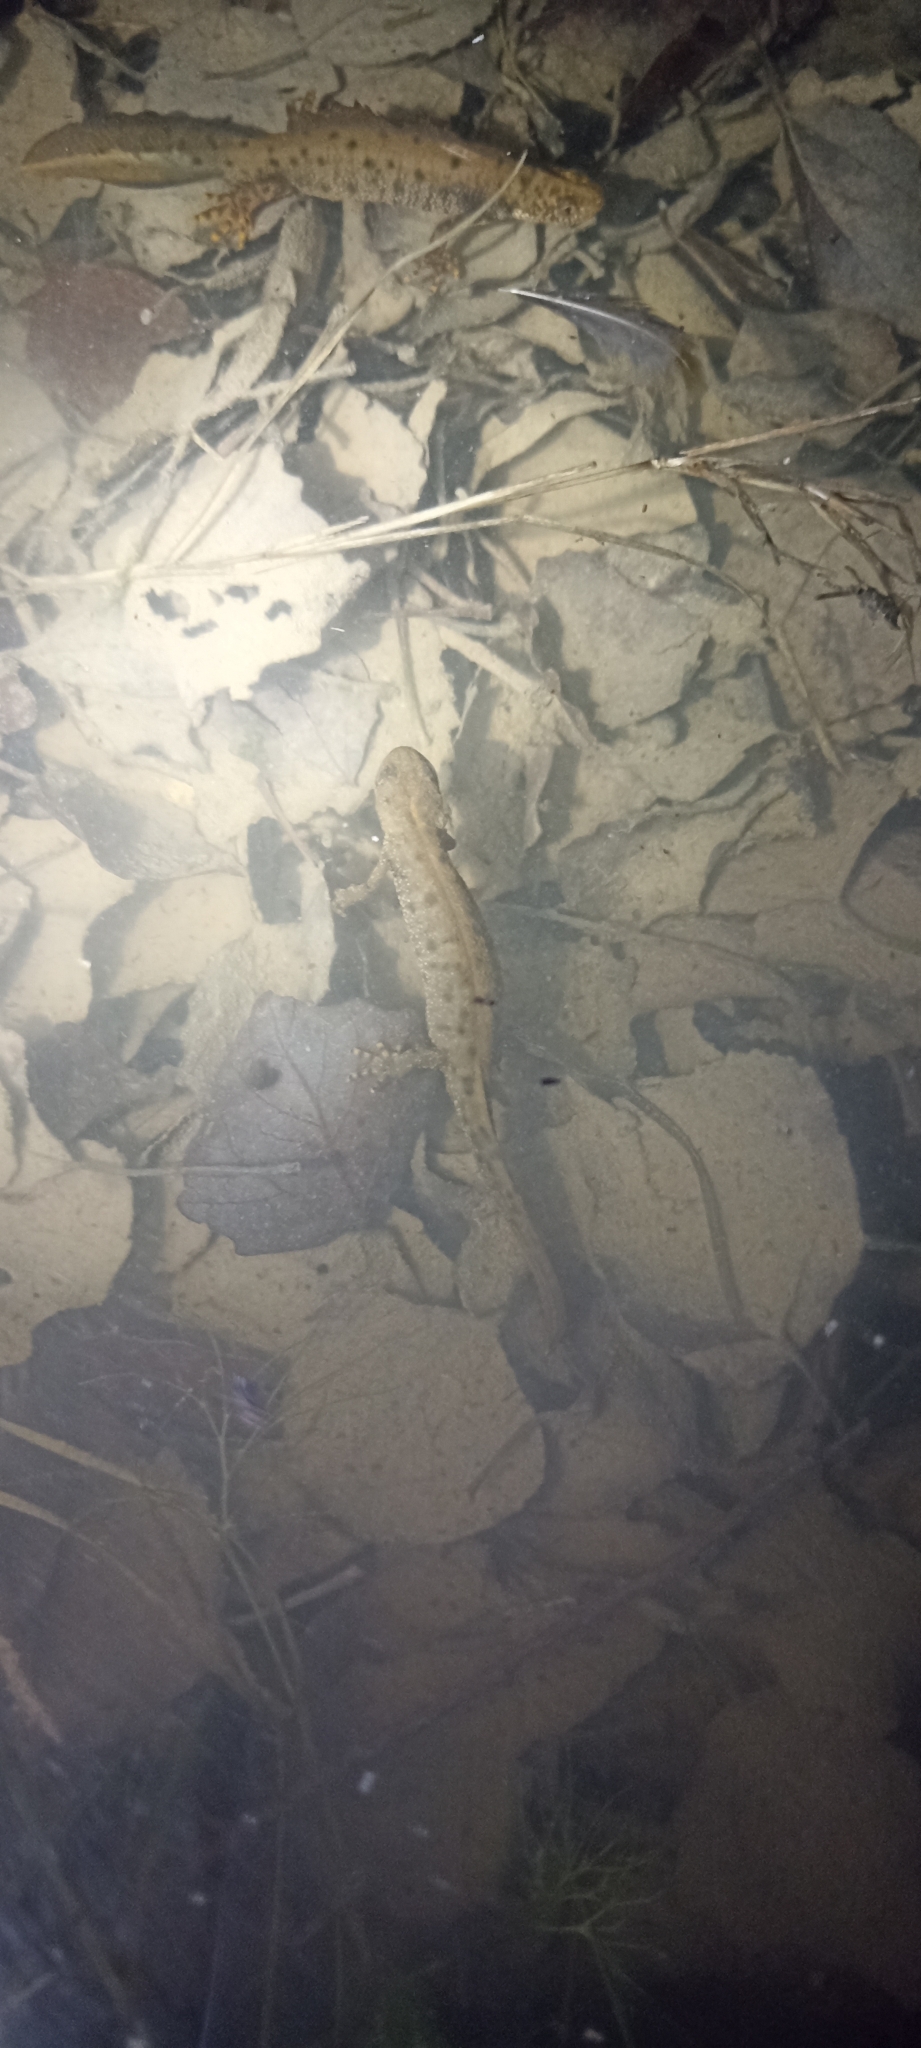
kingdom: Animalia
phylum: Chordata
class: Amphibia
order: Caudata
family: Salamandridae
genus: Triturus
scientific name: Triturus cristatus
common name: Crested newt
